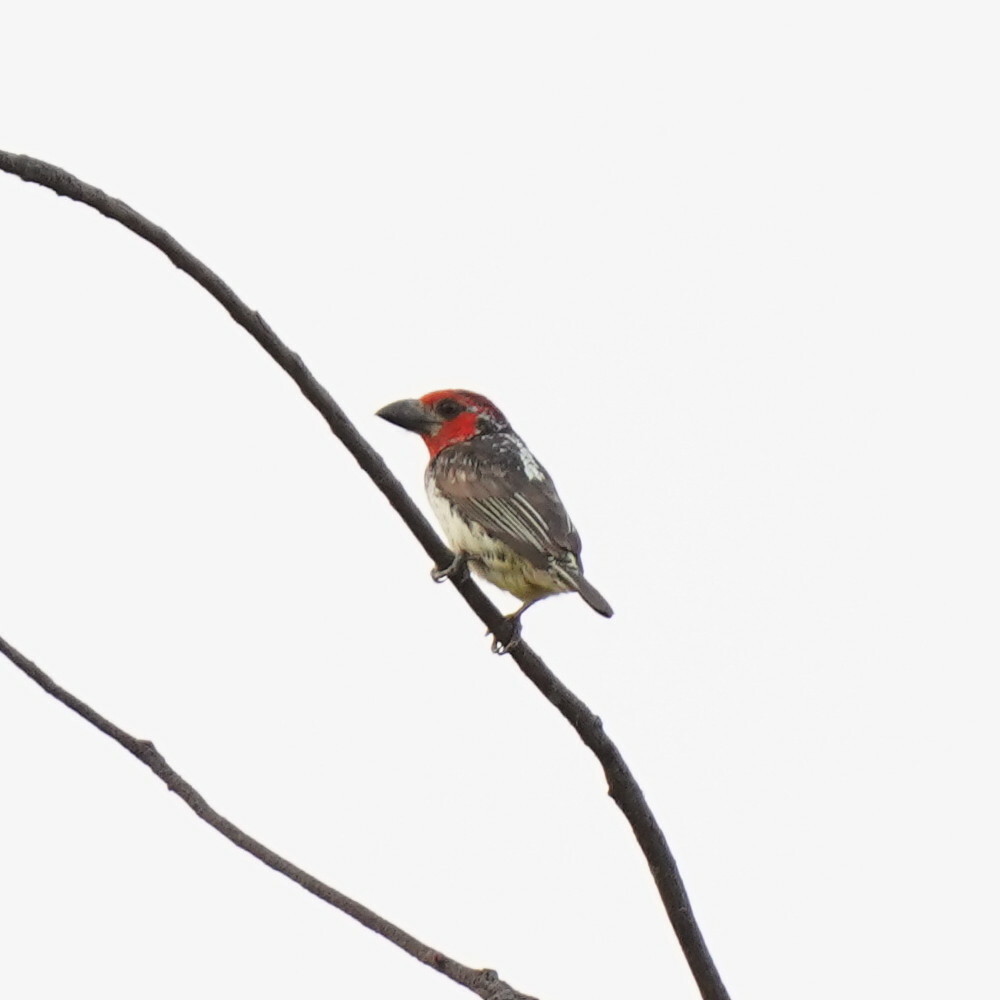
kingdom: Animalia
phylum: Chordata
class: Aves
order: Piciformes
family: Lybiidae
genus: Lybius
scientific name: Lybius vieilloti
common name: Vieillot's barbet
